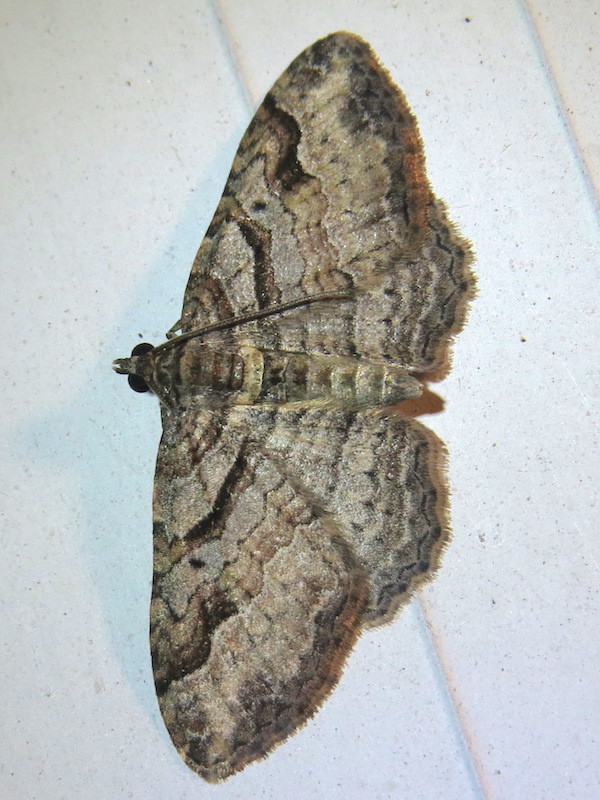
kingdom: Animalia
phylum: Arthropoda
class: Insecta
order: Lepidoptera
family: Geometridae
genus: Costaconvexa
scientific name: Costaconvexa centrostrigaria
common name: Bent-line carpet
